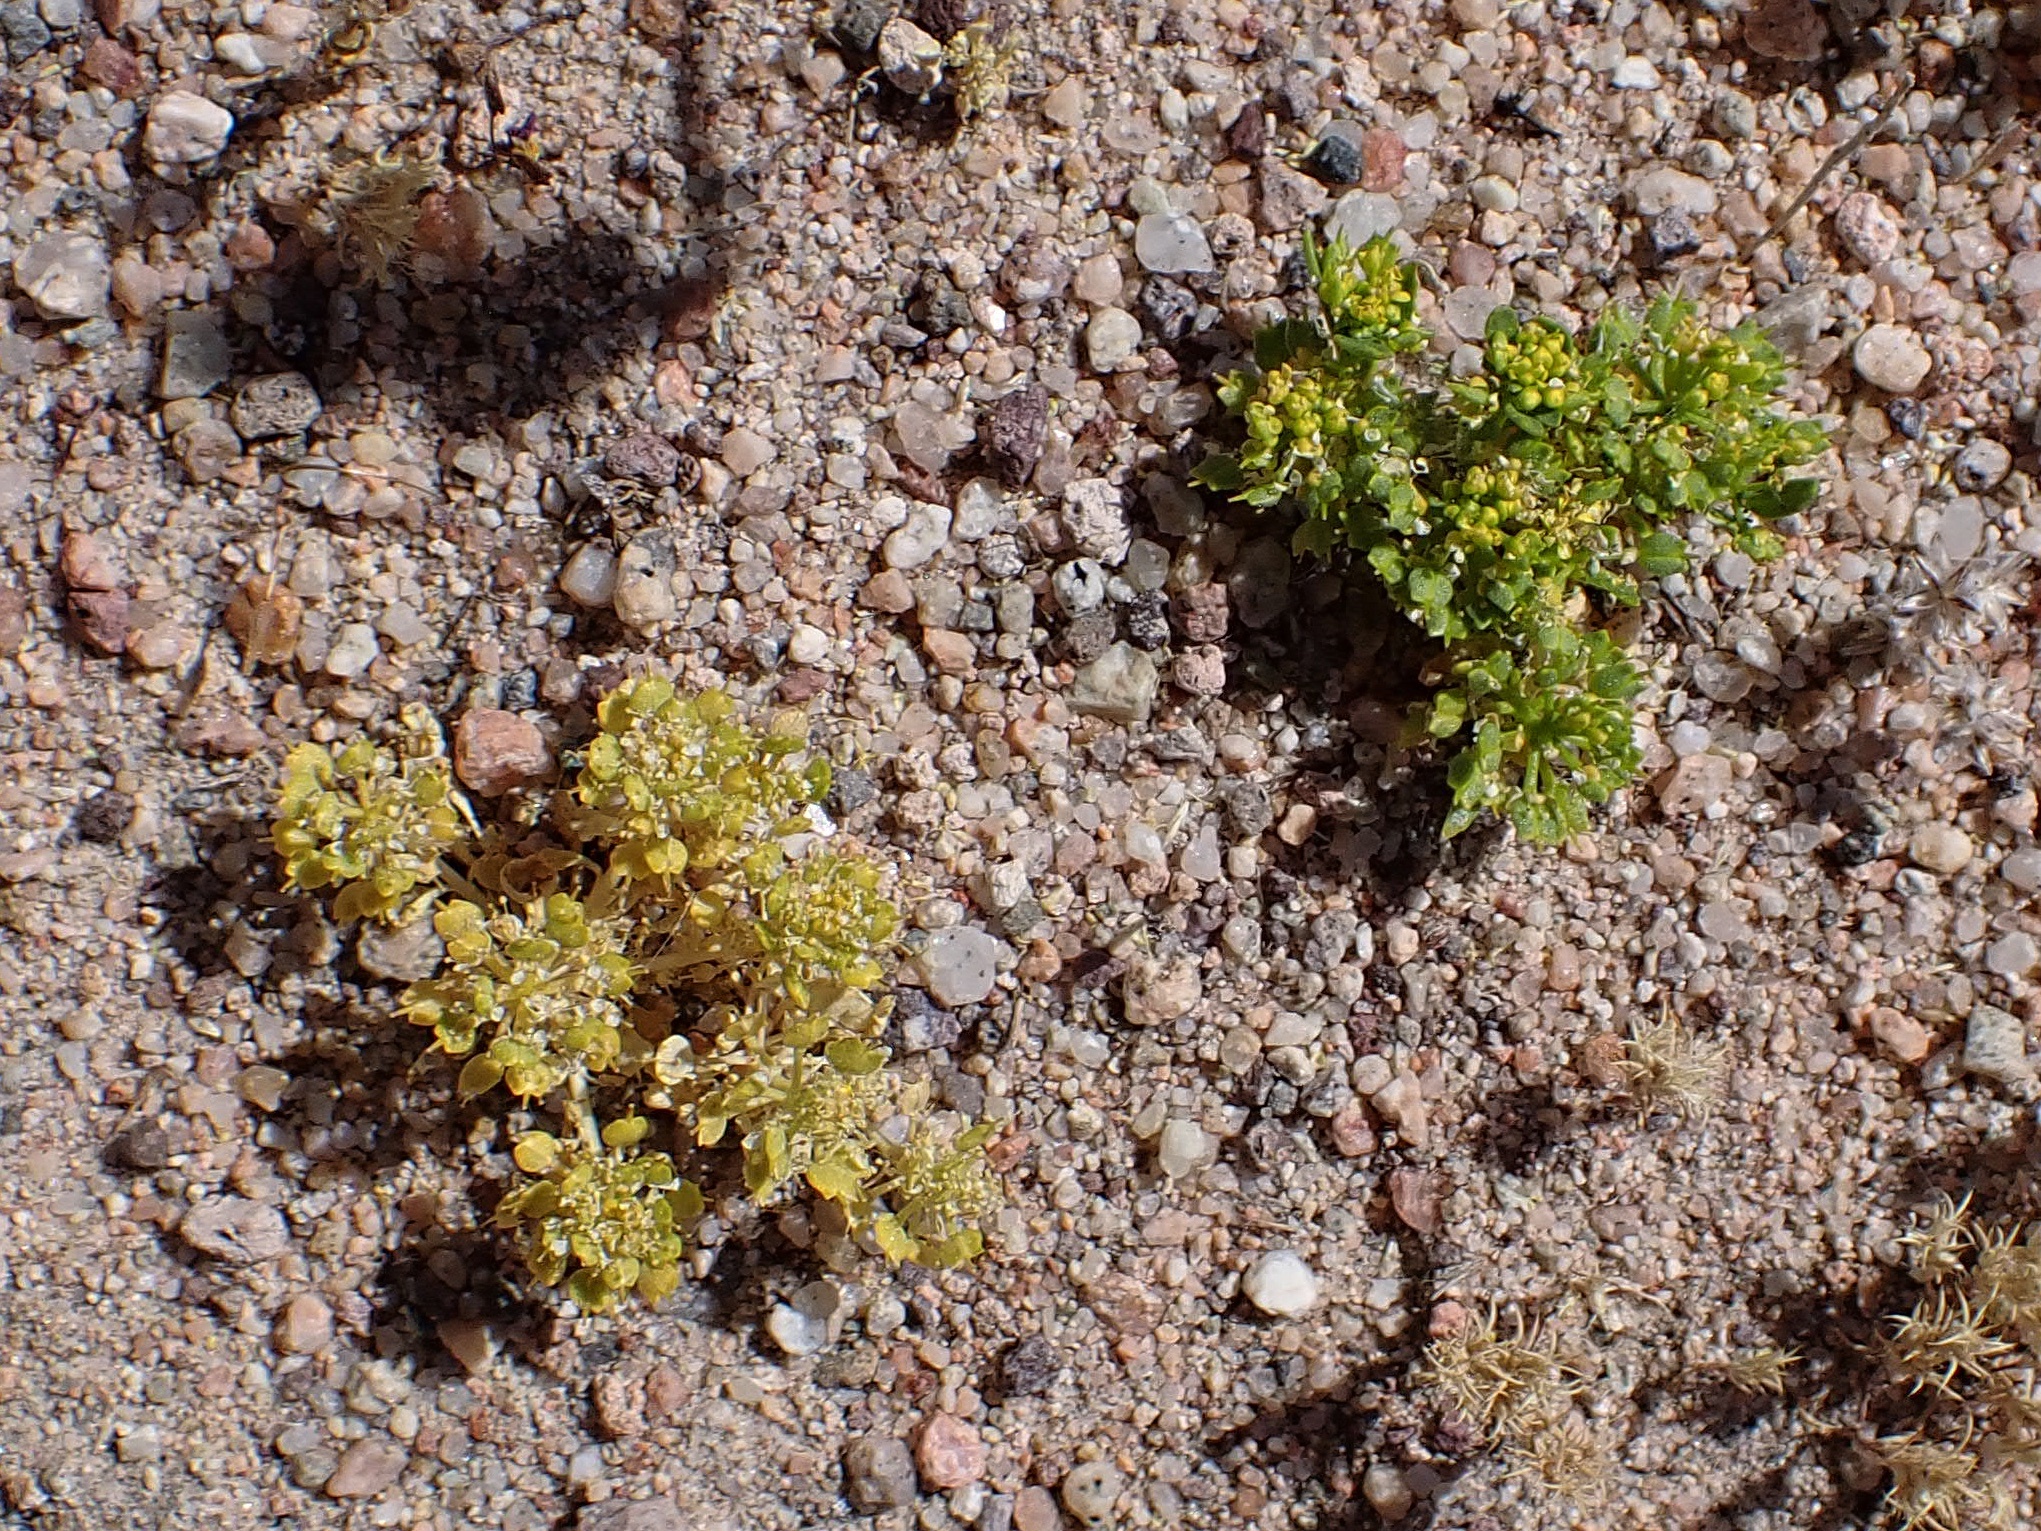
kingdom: Plantae
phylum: Tracheophyta
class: Magnoliopsida
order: Brassicales
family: Brassicaceae
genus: Lepidium
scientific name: Lepidium flavum
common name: Yellow pepperwort
